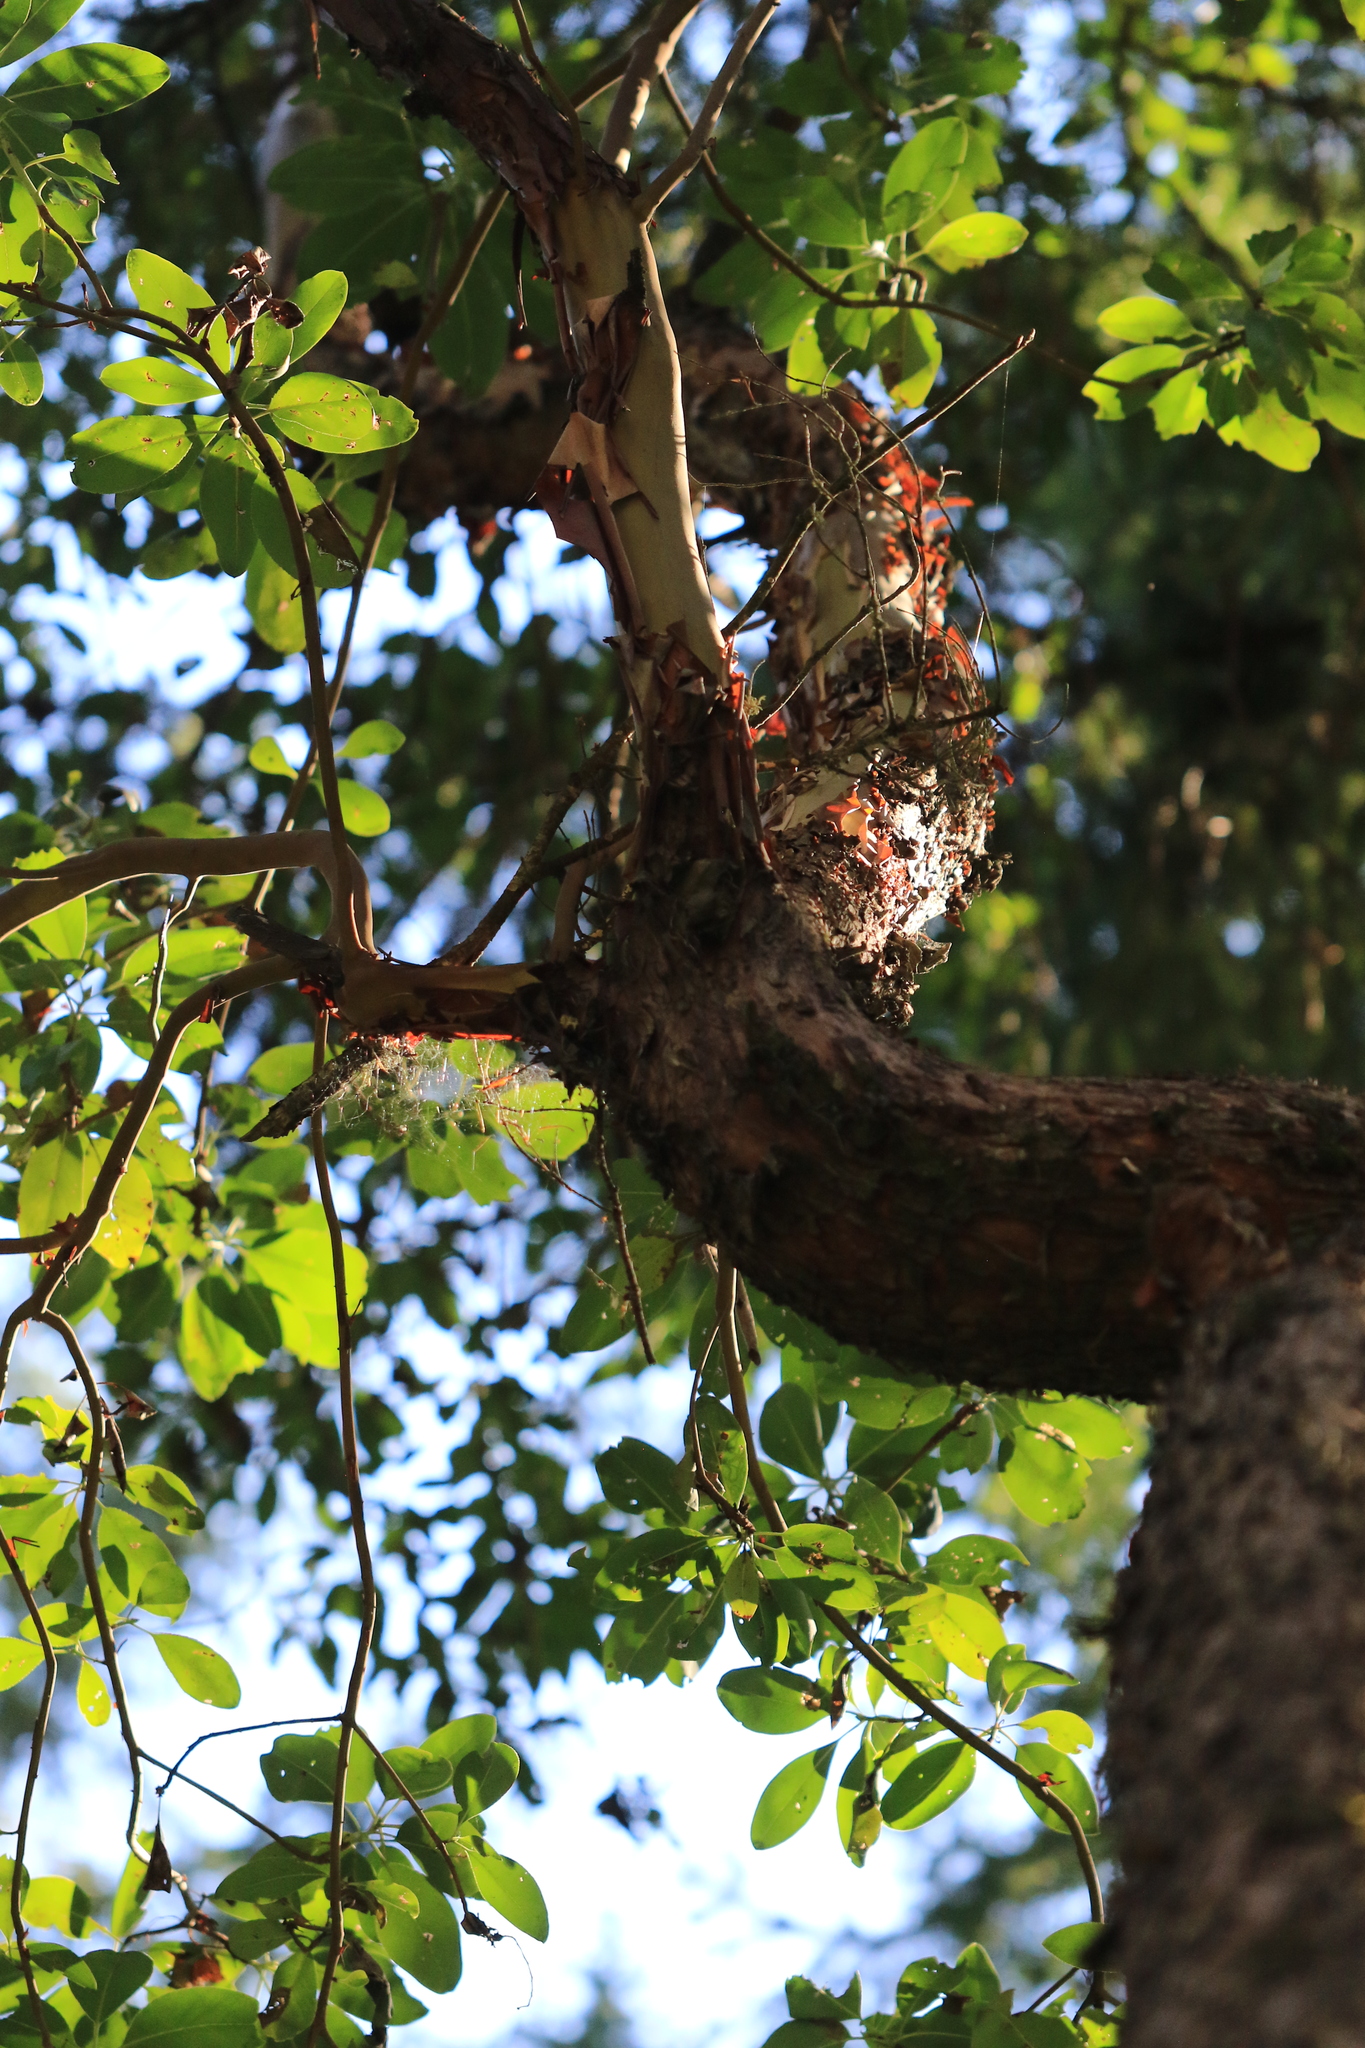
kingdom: Plantae
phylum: Tracheophyta
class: Magnoliopsida
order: Ericales
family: Ericaceae
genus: Arbutus
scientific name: Arbutus menziesii
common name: Pacific madrone
